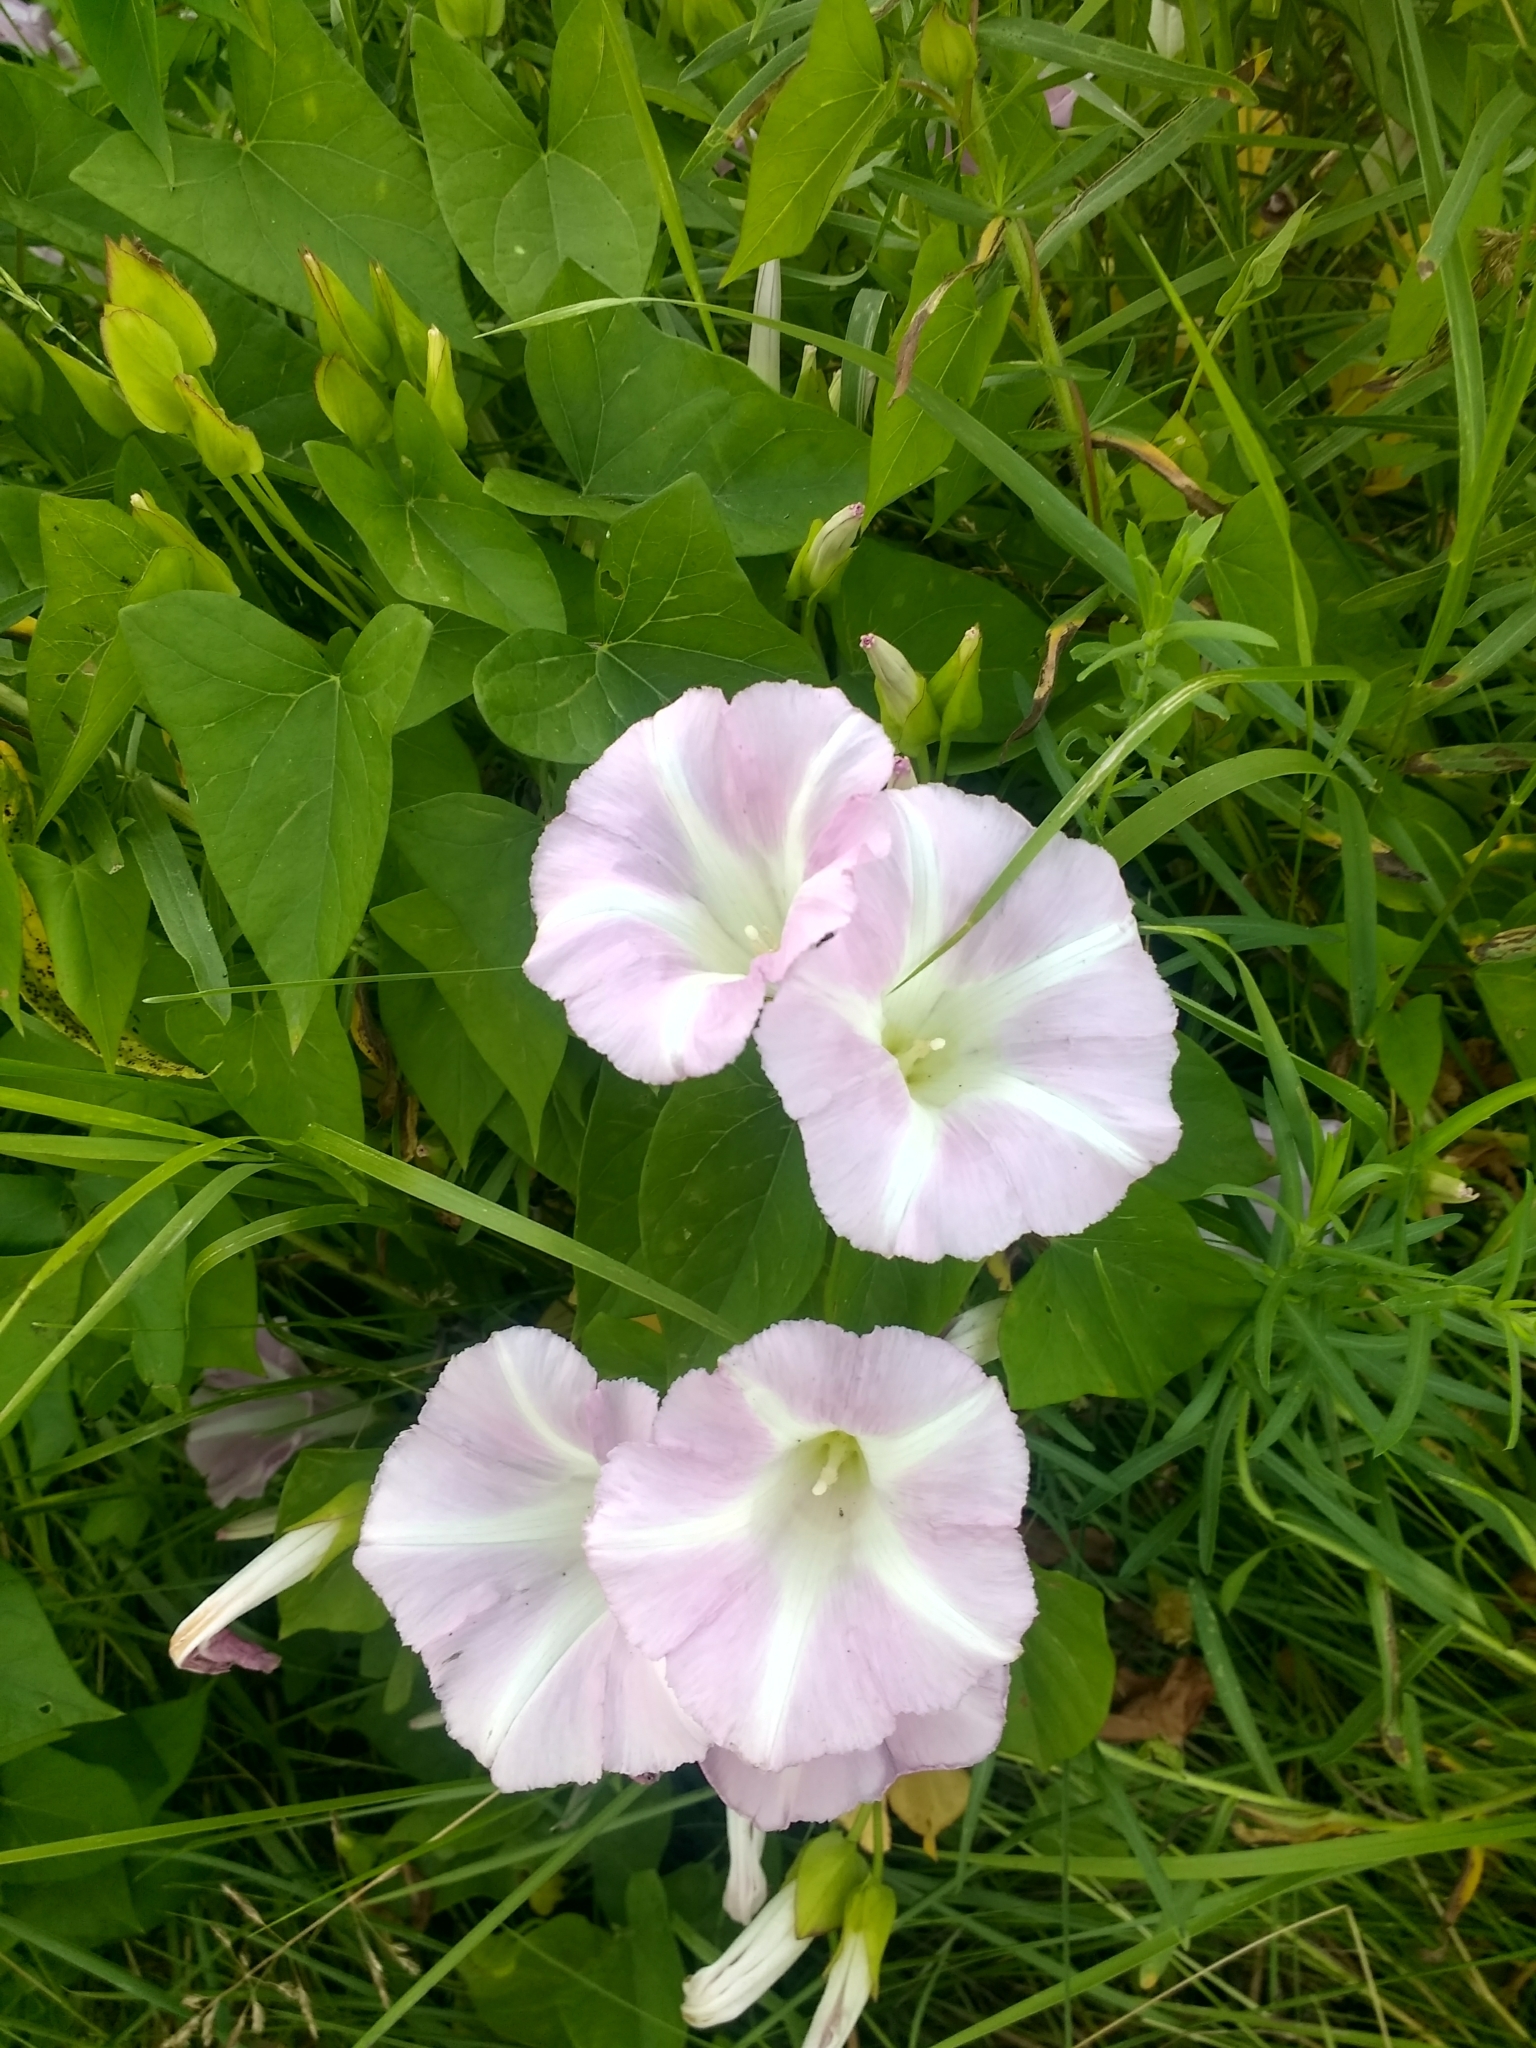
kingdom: Plantae
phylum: Tracheophyta
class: Magnoliopsida
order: Solanales
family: Convolvulaceae
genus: Calystegia
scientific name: Calystegia sepium
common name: Hedge bindweed
